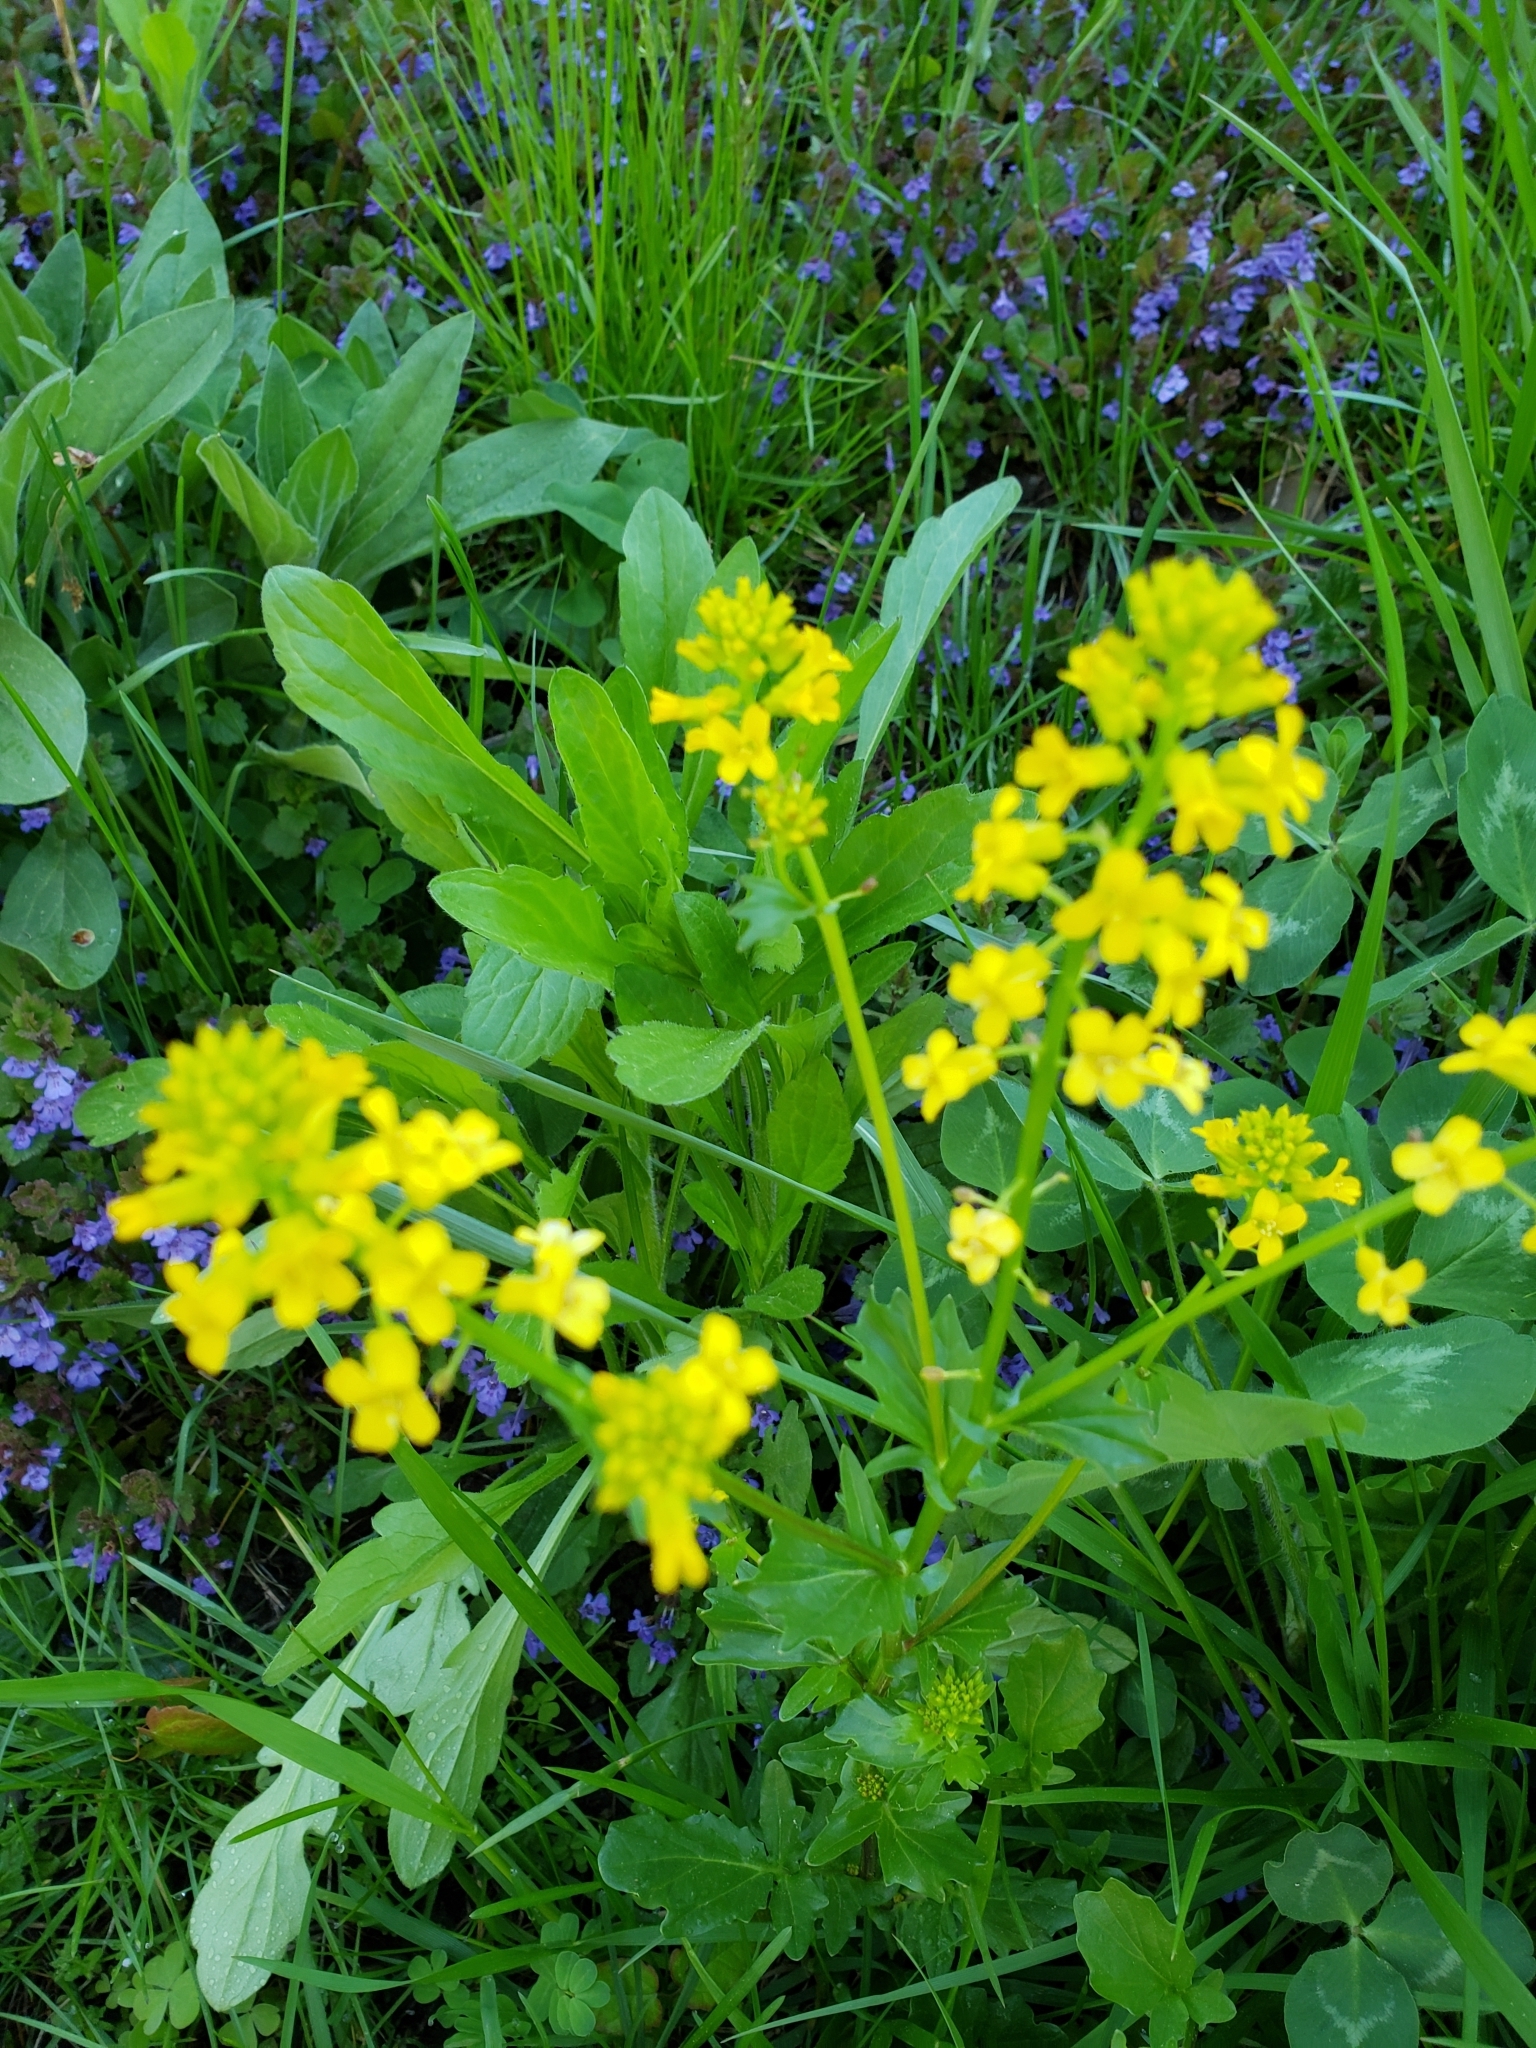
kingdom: Plantae
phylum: Tracheophyta
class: Magnoliopsida
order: Brassicales
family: Brassicaceae
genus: Barbarea
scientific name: Barbarea vulgaris
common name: Cressy-greens
